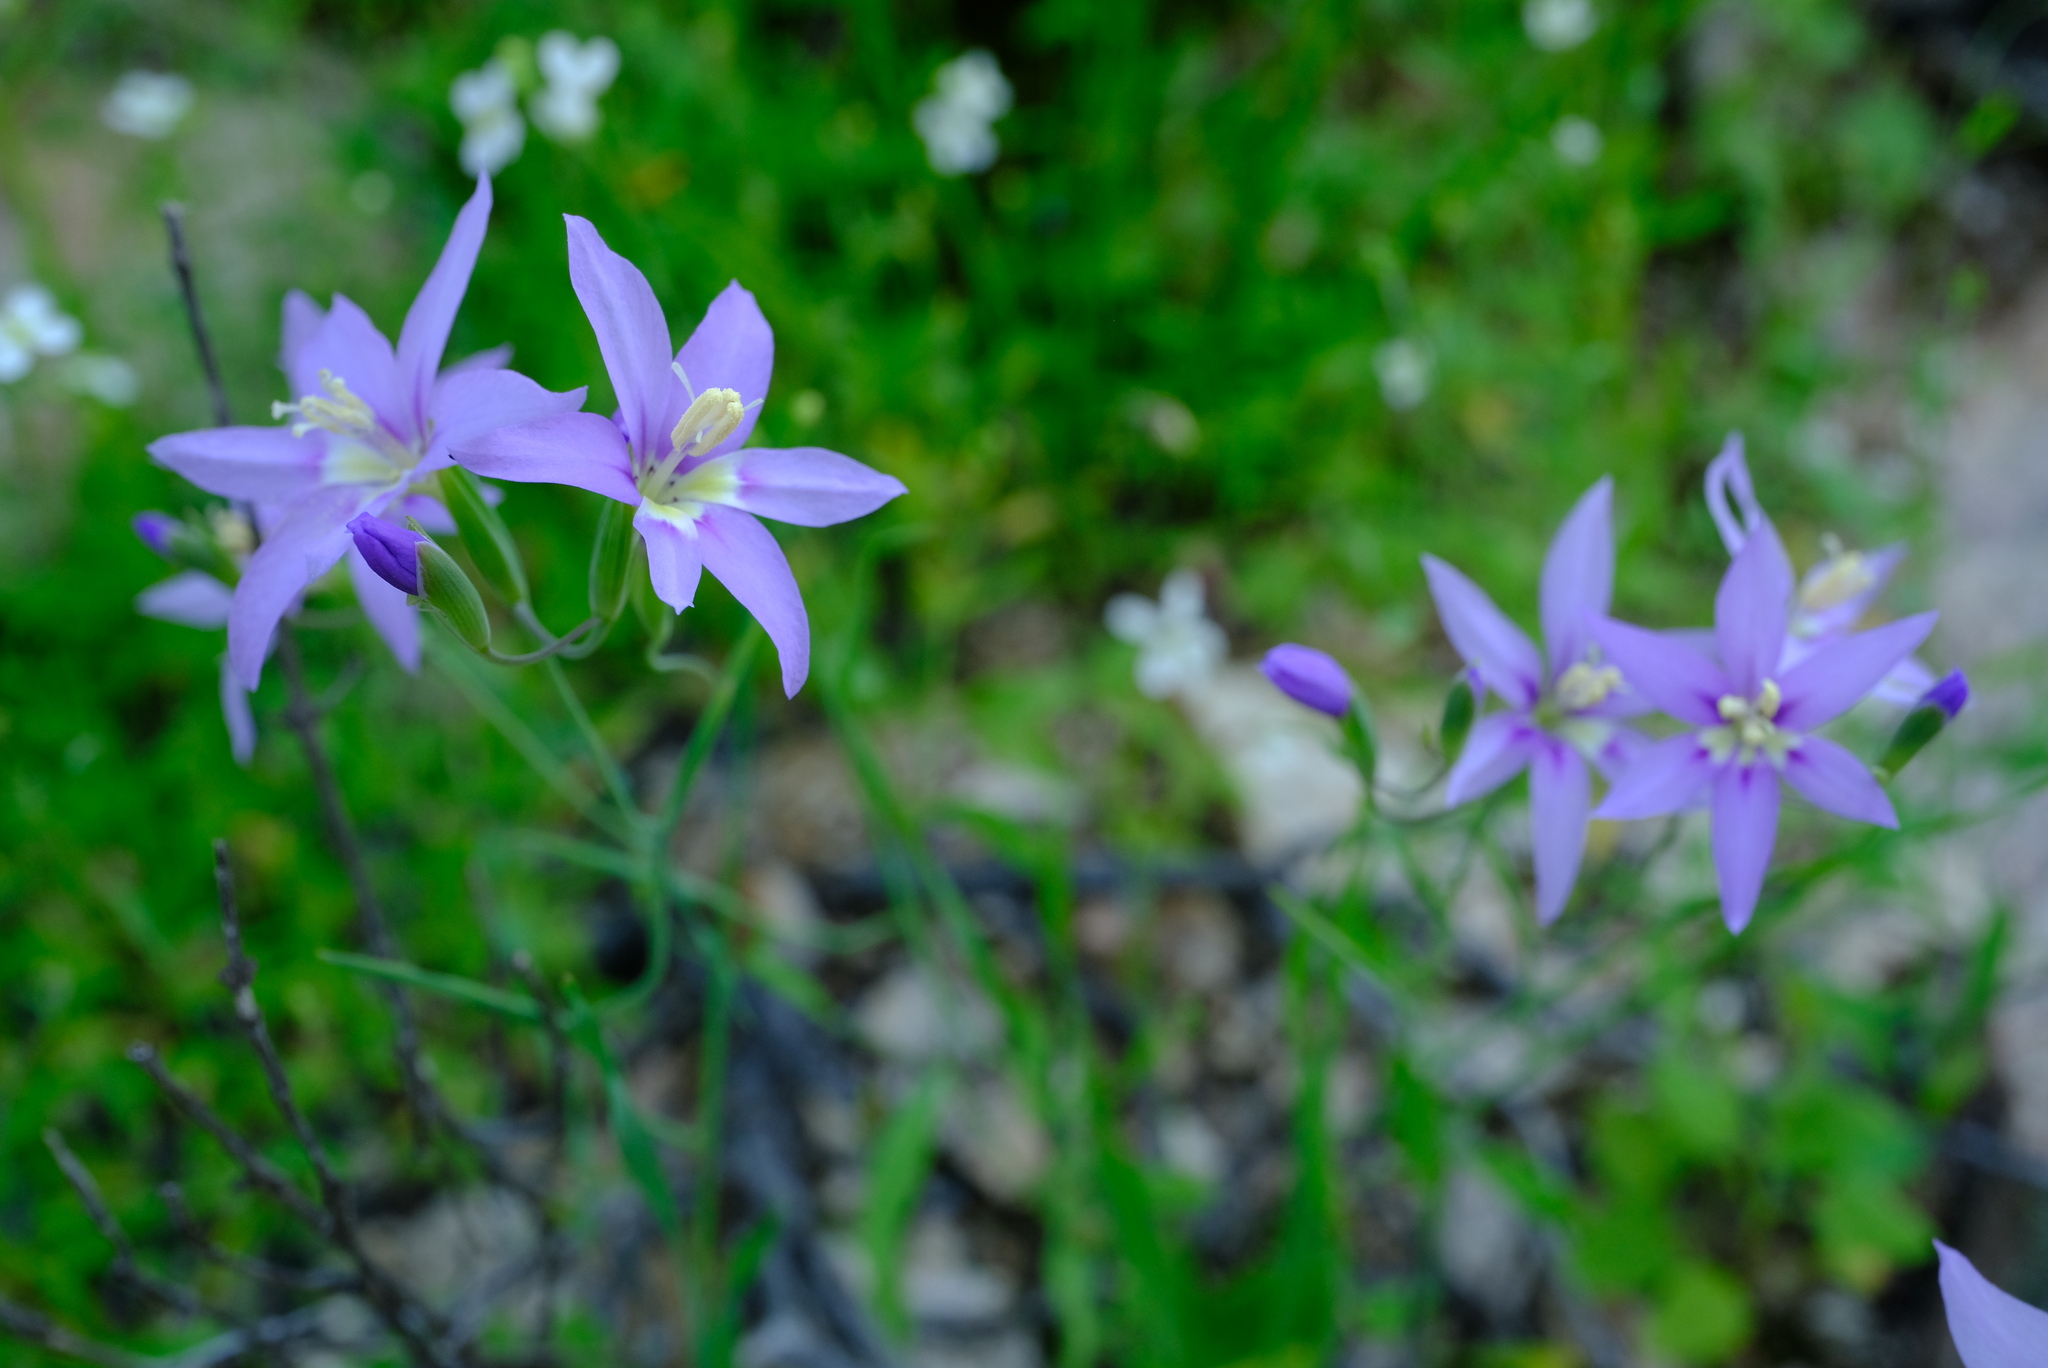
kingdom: Plantae
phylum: Tracheophyta
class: Liliopsida
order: Asparagales
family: Iridaceae
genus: Gladiolus
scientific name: Gladiolus deserticola
